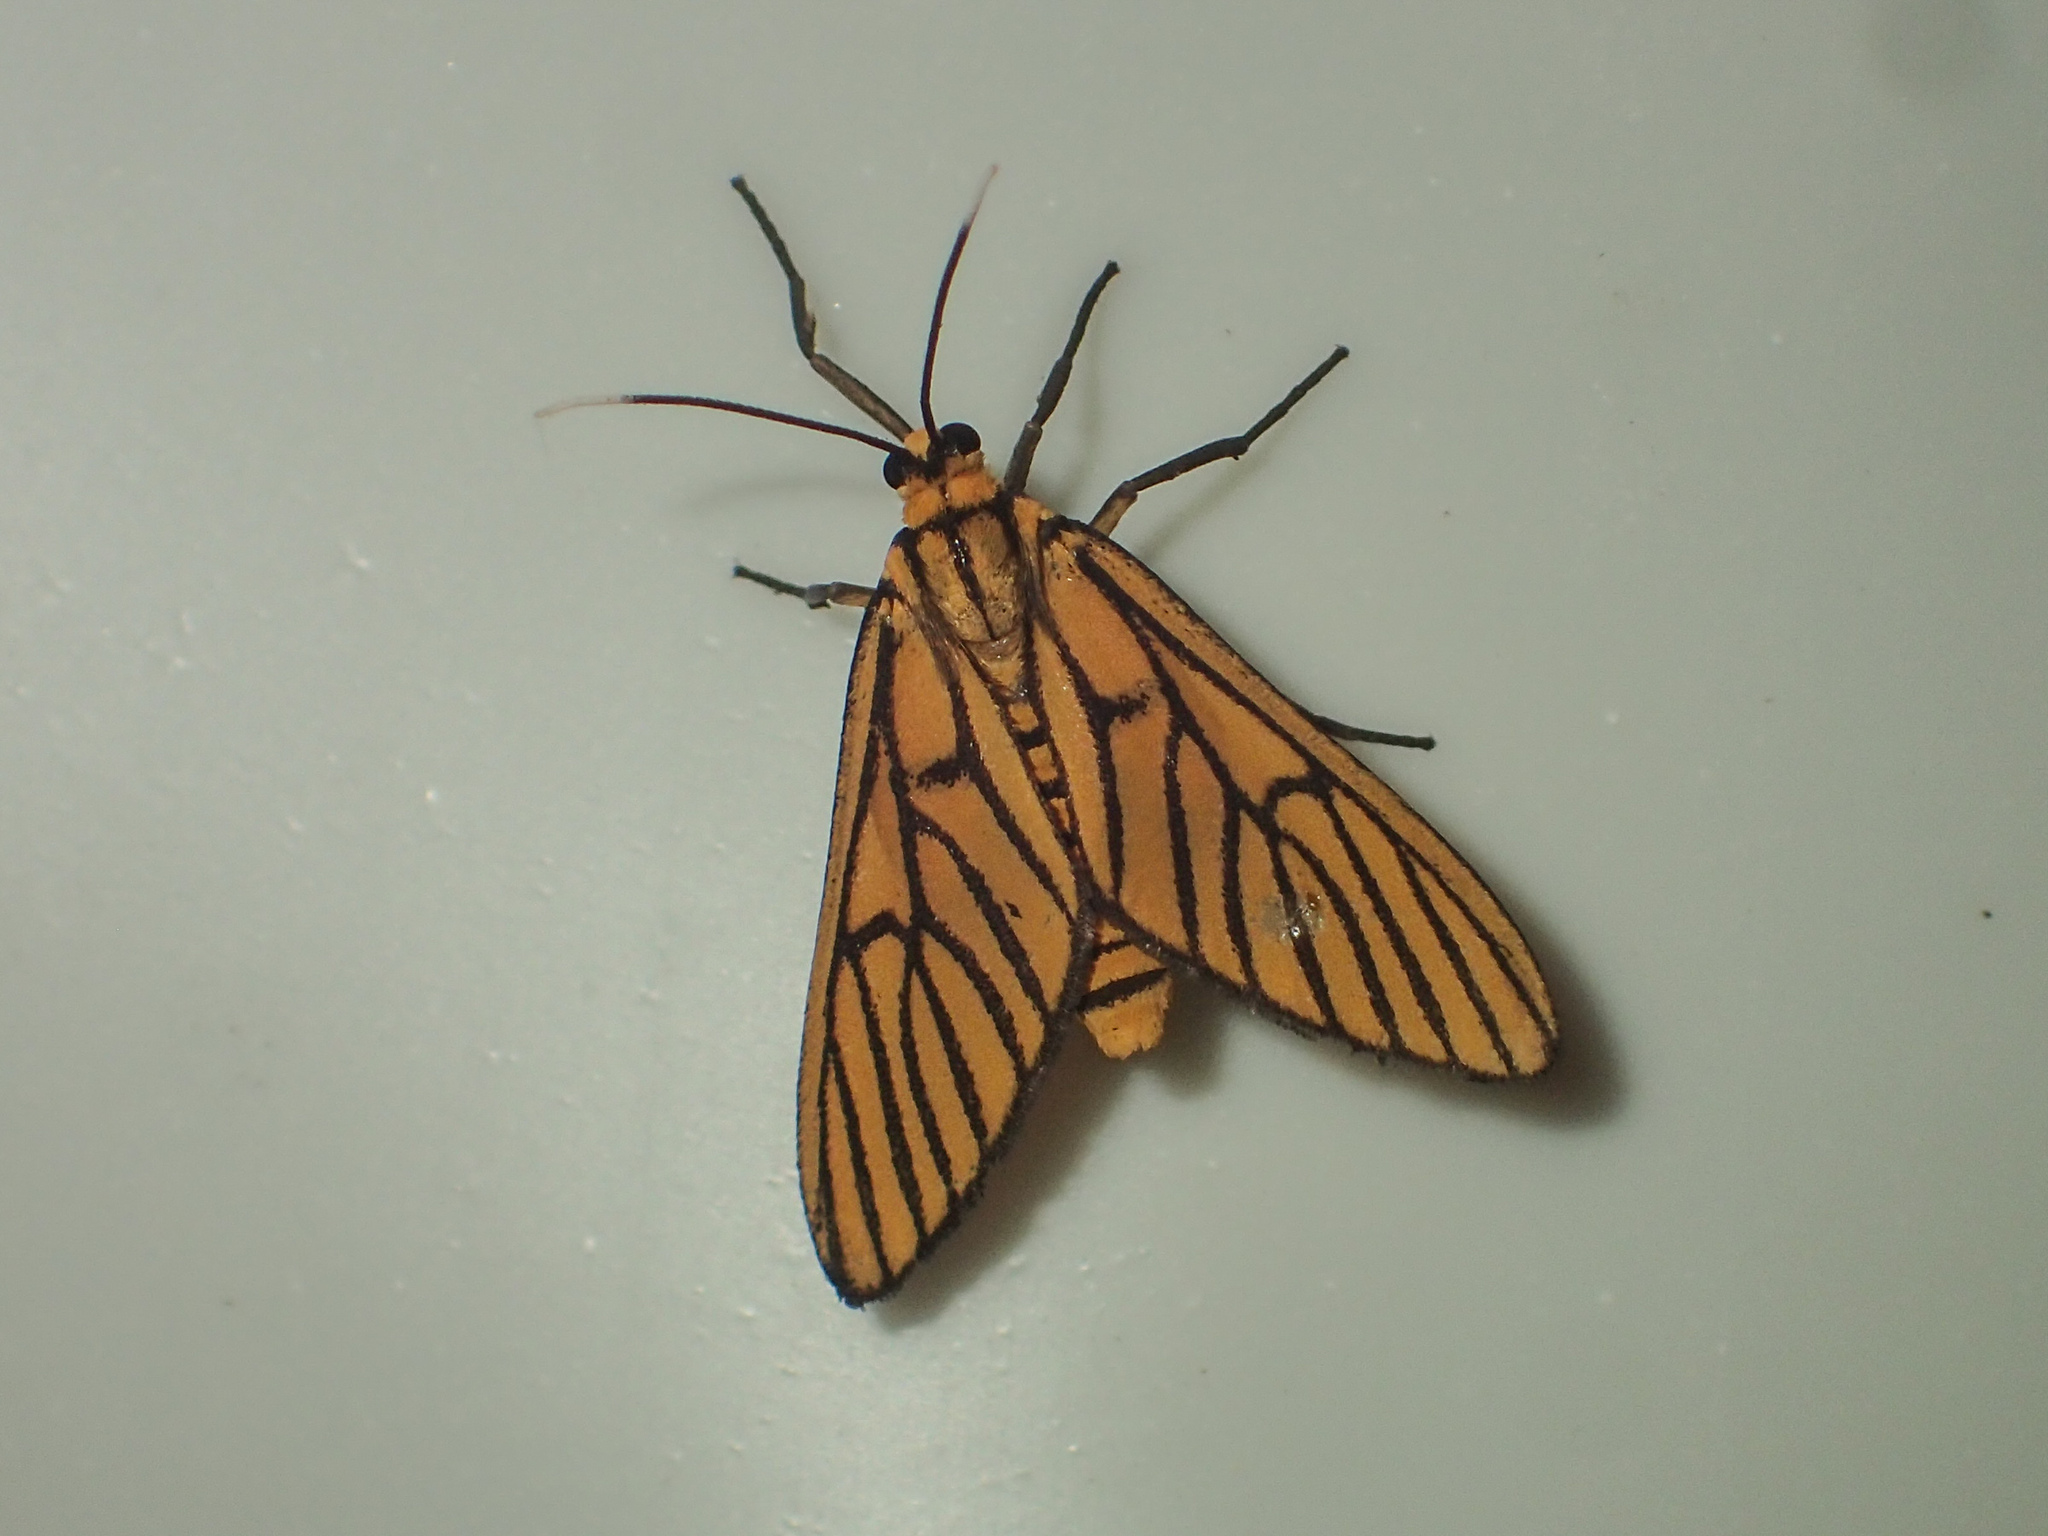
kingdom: Animalia
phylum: Arthropoda
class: Insecta
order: Lepidoptera
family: Erebidae
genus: Amata
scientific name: Amata tigrina
